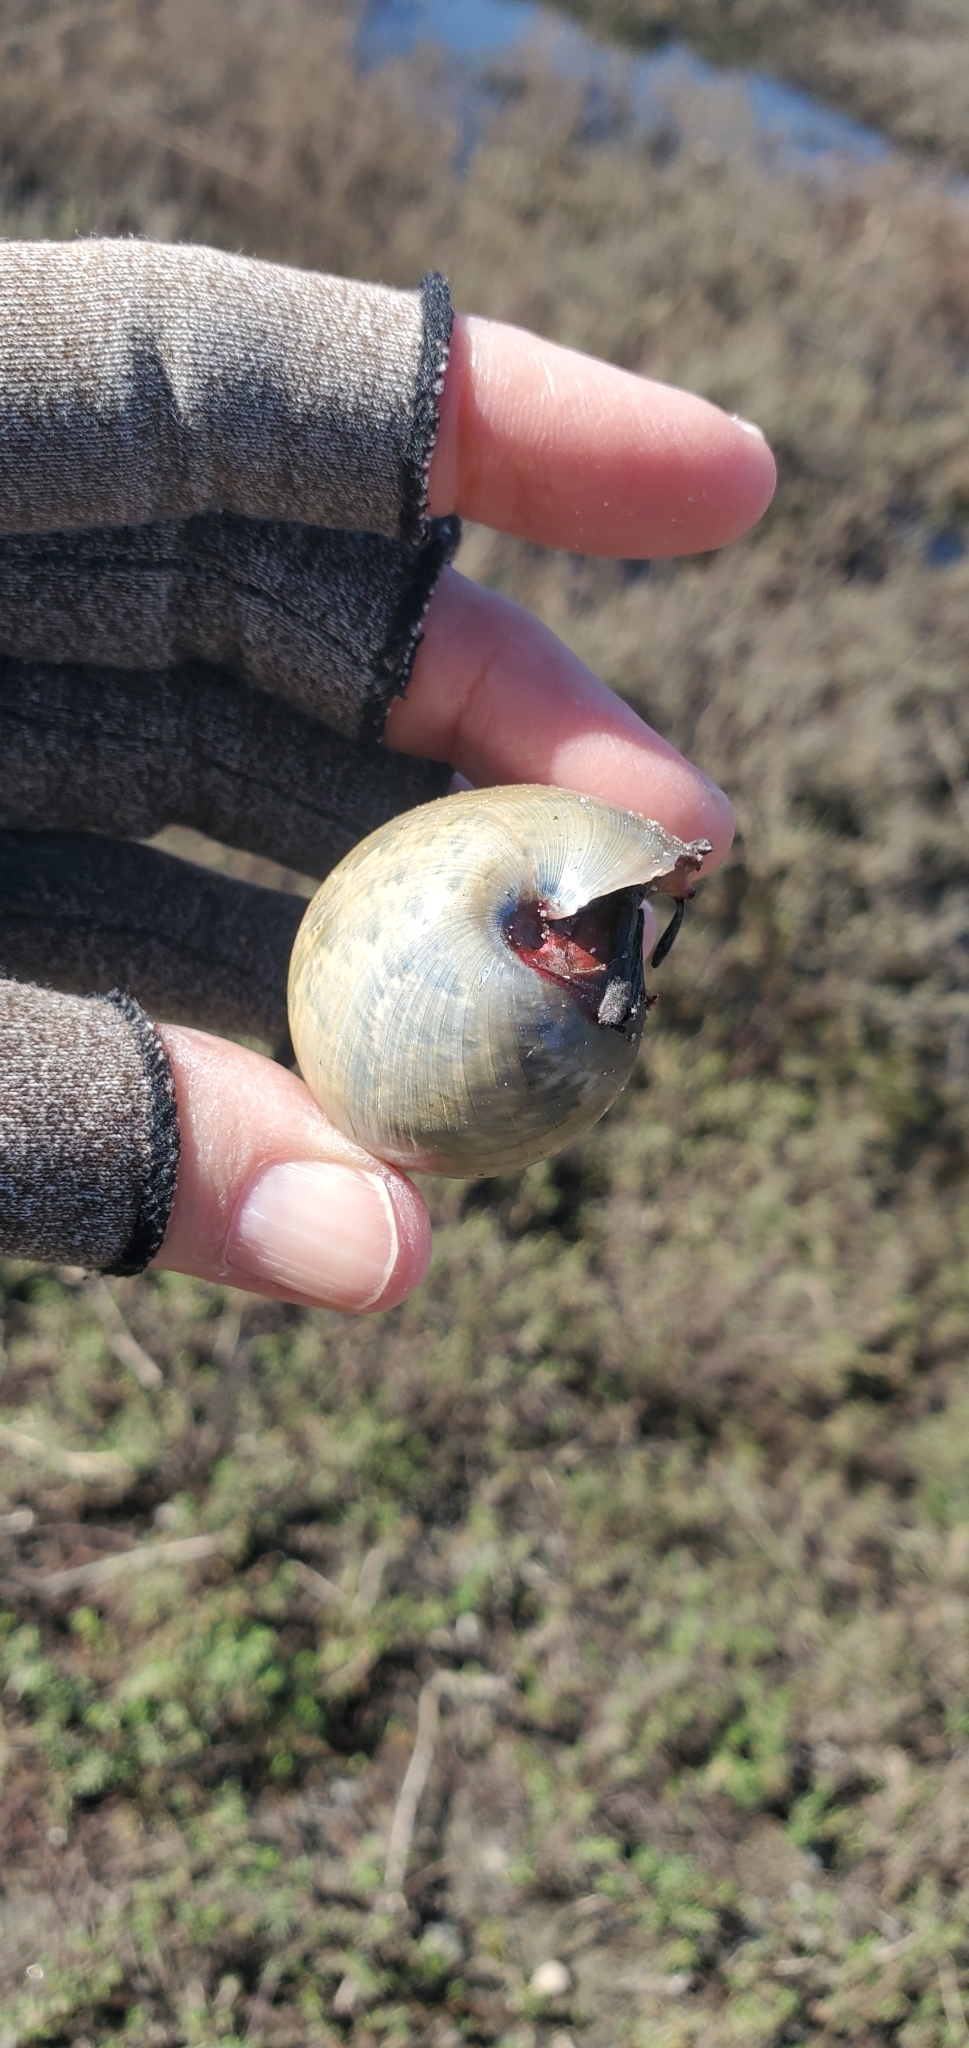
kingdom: Animalia
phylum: Mollusca
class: Gastropoda
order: Cephalaspidea
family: Bullidae
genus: Bulla
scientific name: Bulla gouldiana
